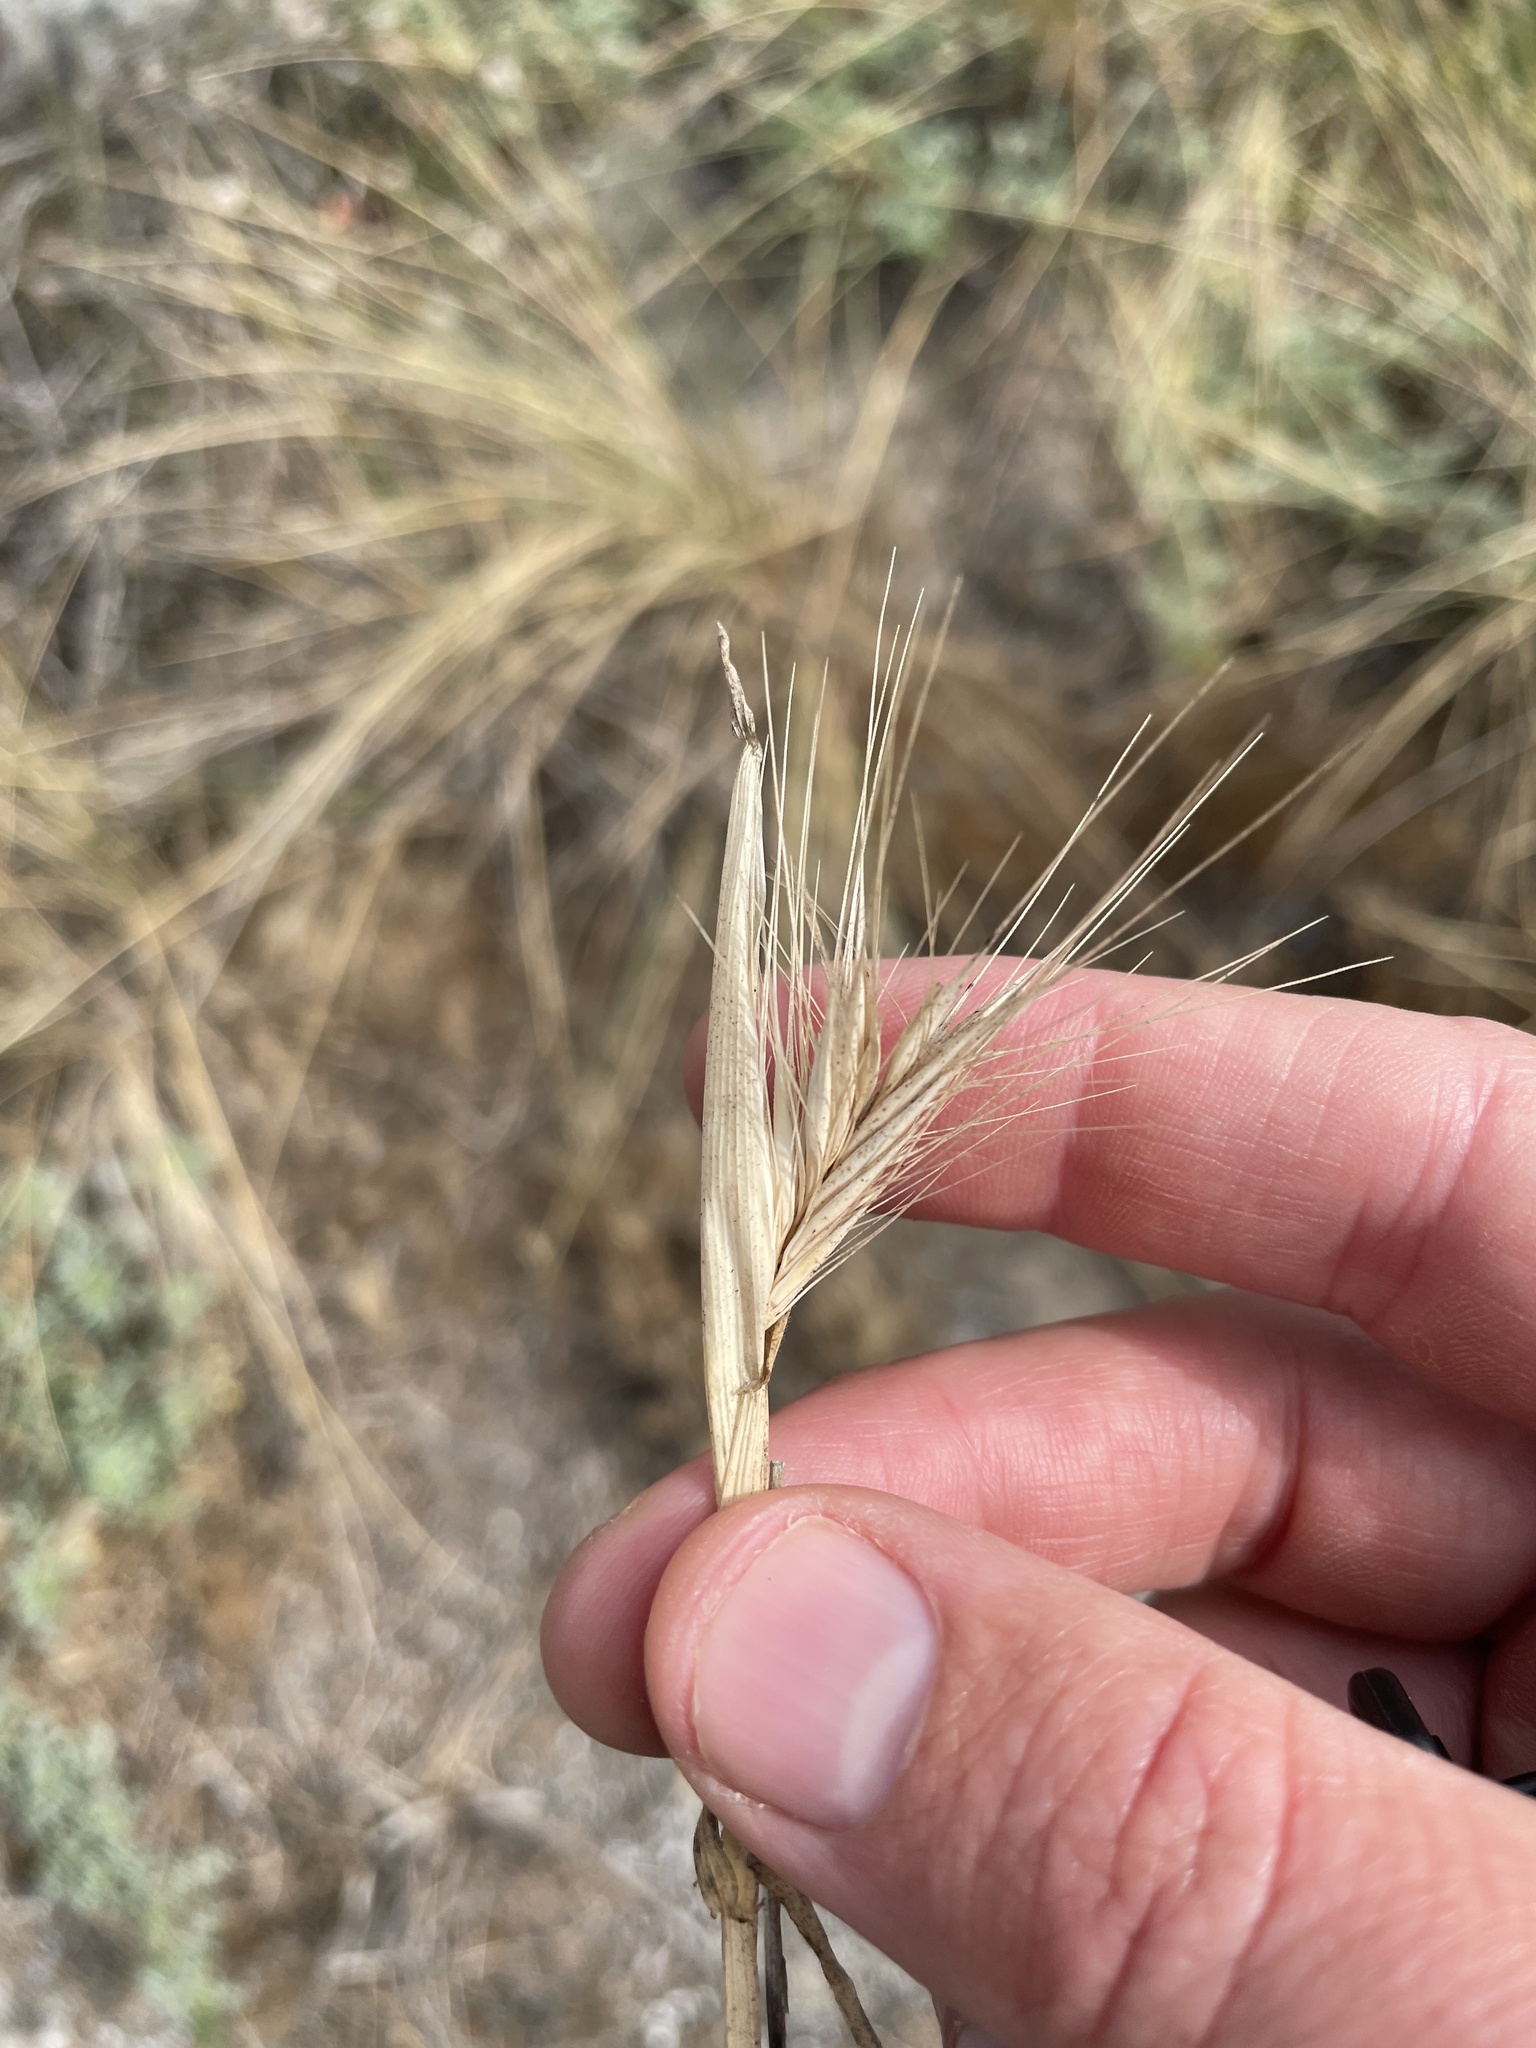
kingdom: Plantae
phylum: Tracheophyta
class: Liliopsida
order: Poales
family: Poaceae
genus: Hordeum
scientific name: Hordeum murinum
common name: Wall barley
